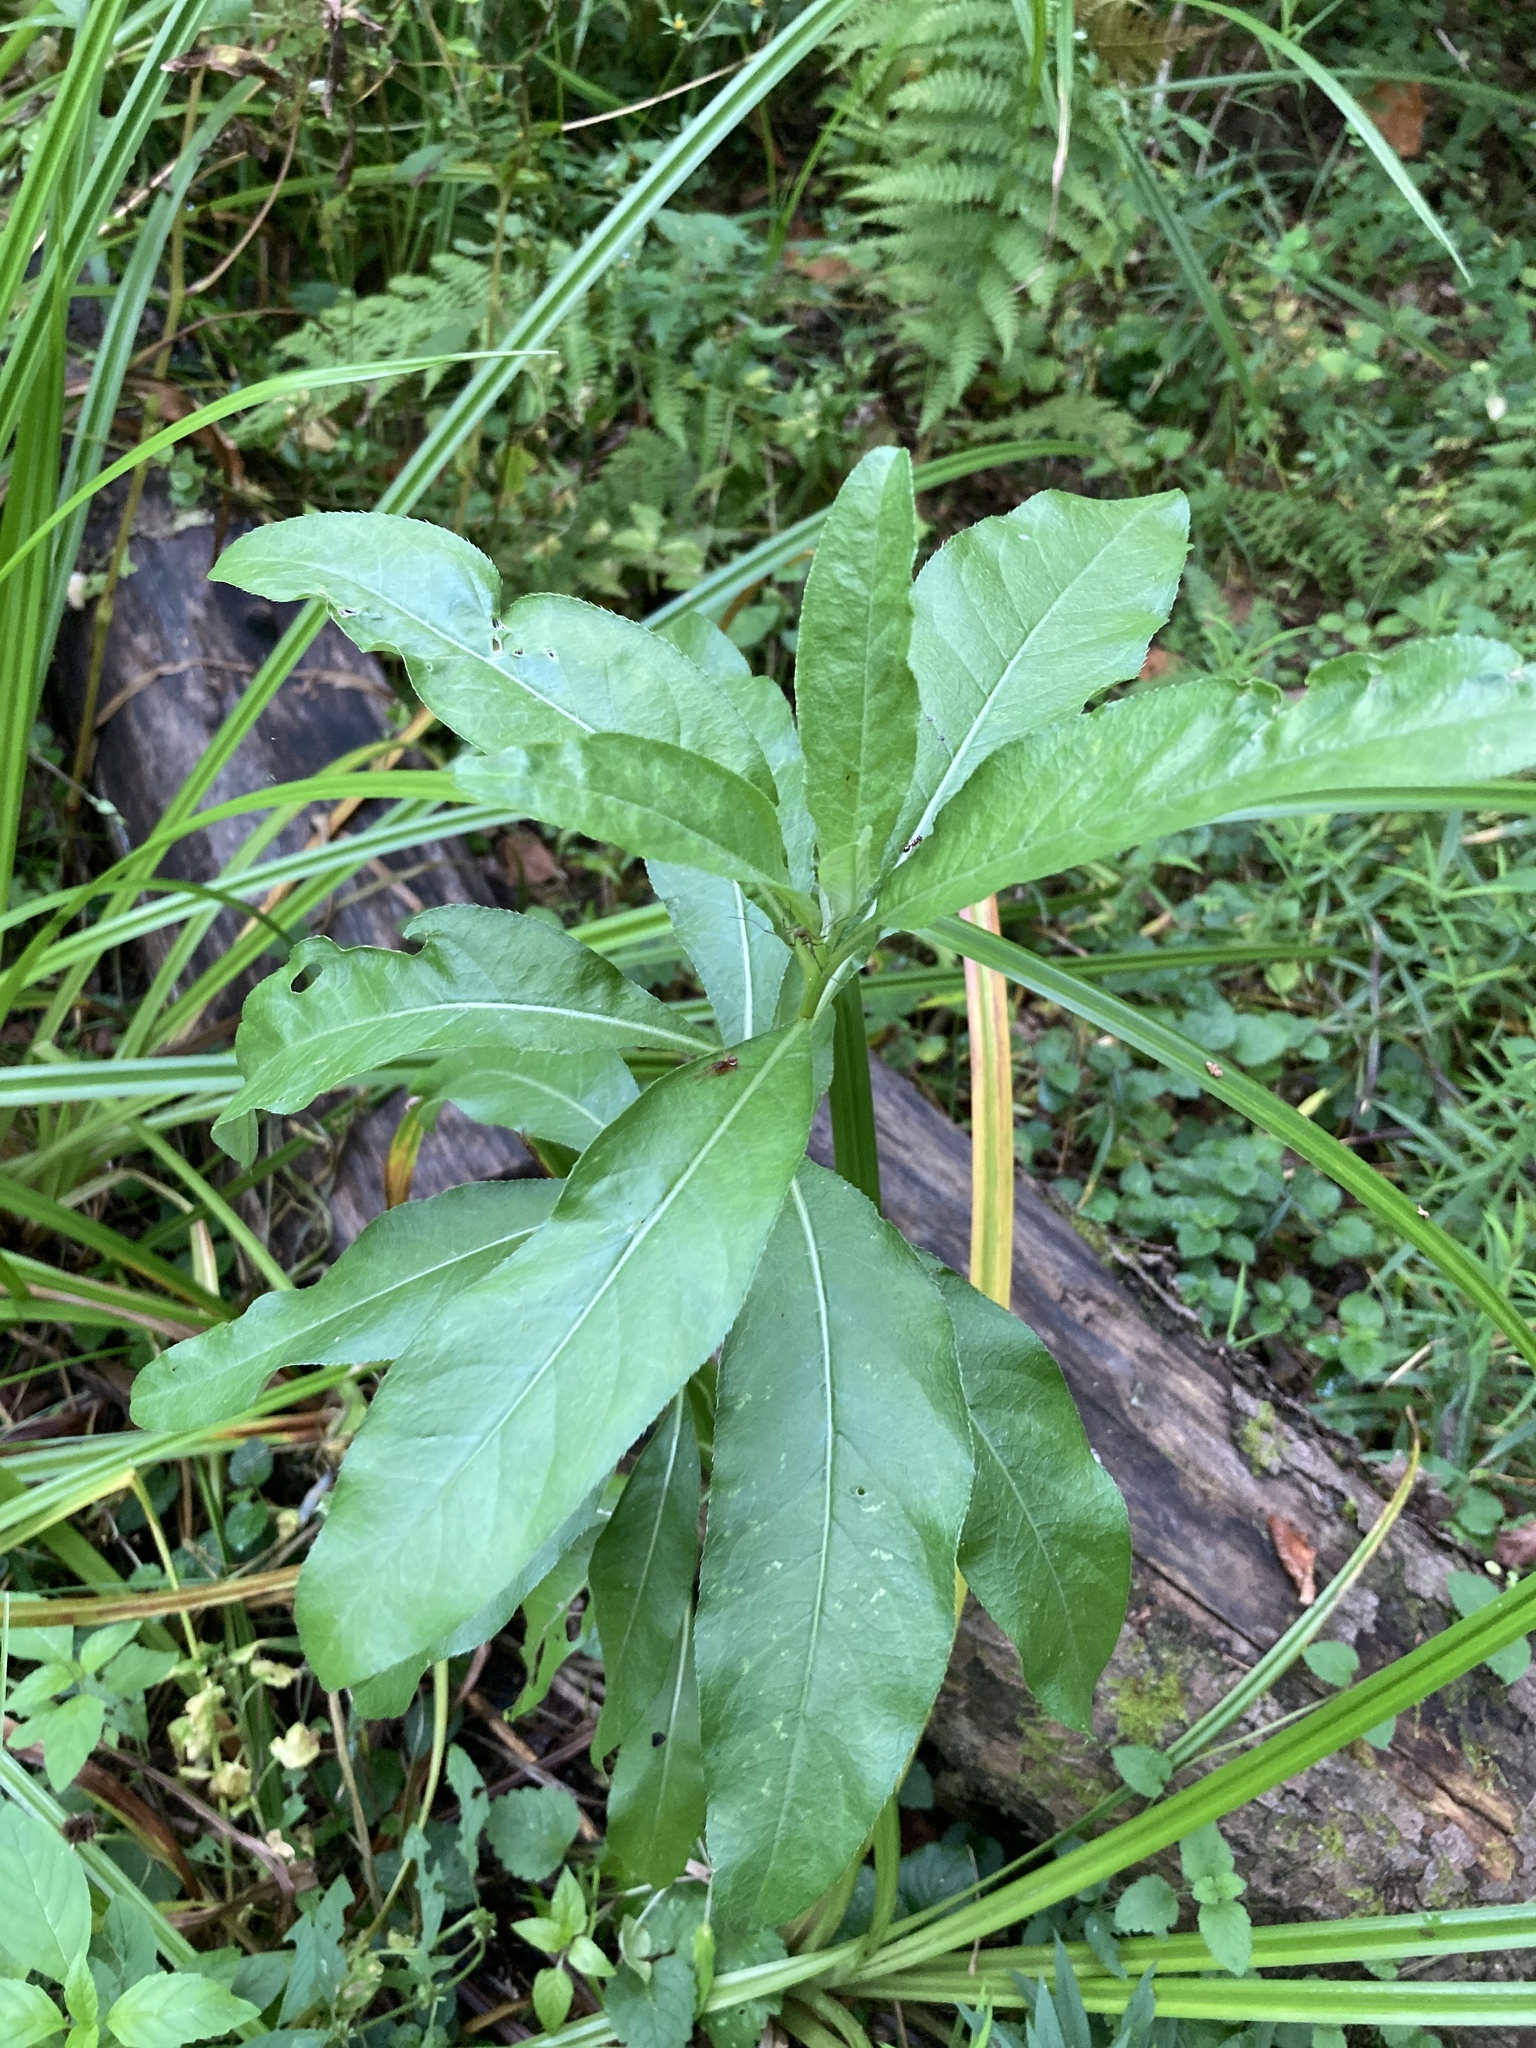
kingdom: Plantae
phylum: Tracheophyta
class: Magnoliopsida
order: Asterales
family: Asteraceae
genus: Cirsium
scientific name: Cirsium arvense
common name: Creeping thistle
